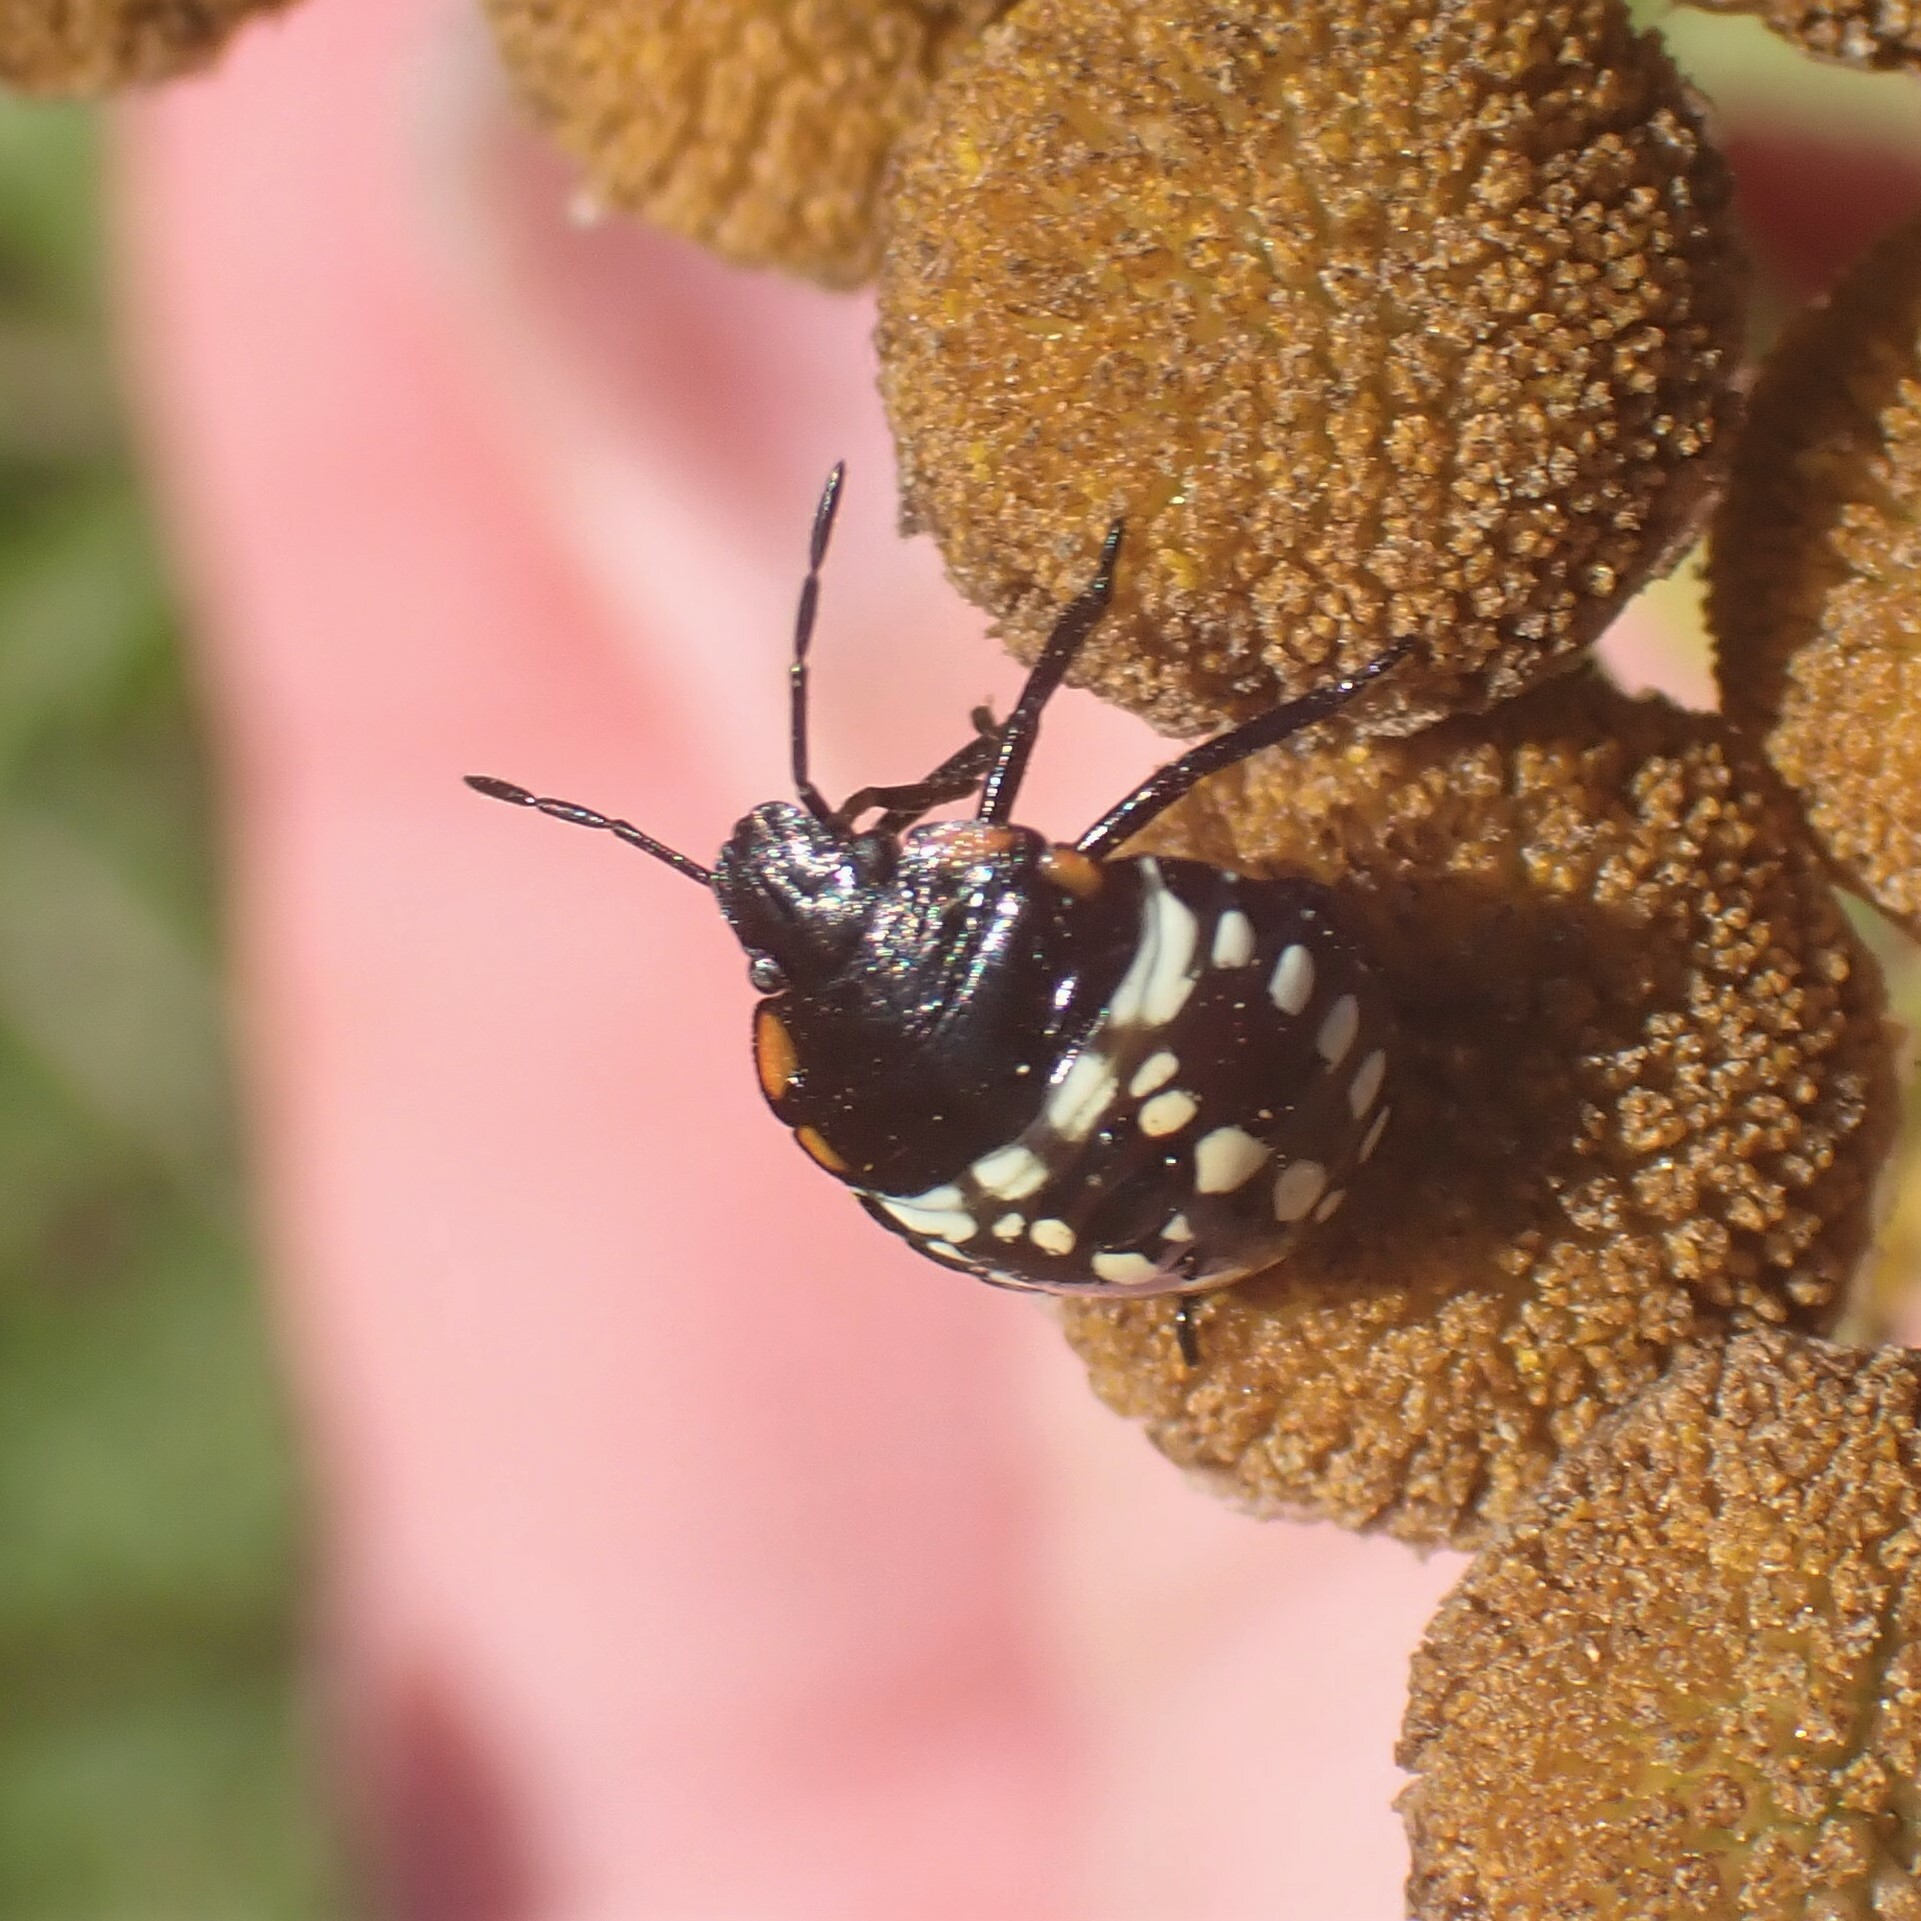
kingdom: Animalia
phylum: Arthropoda
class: Insecta
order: Hemiptera
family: Pentatomidae
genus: Nezara
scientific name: Nezara viridula
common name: Southern green stink bug
